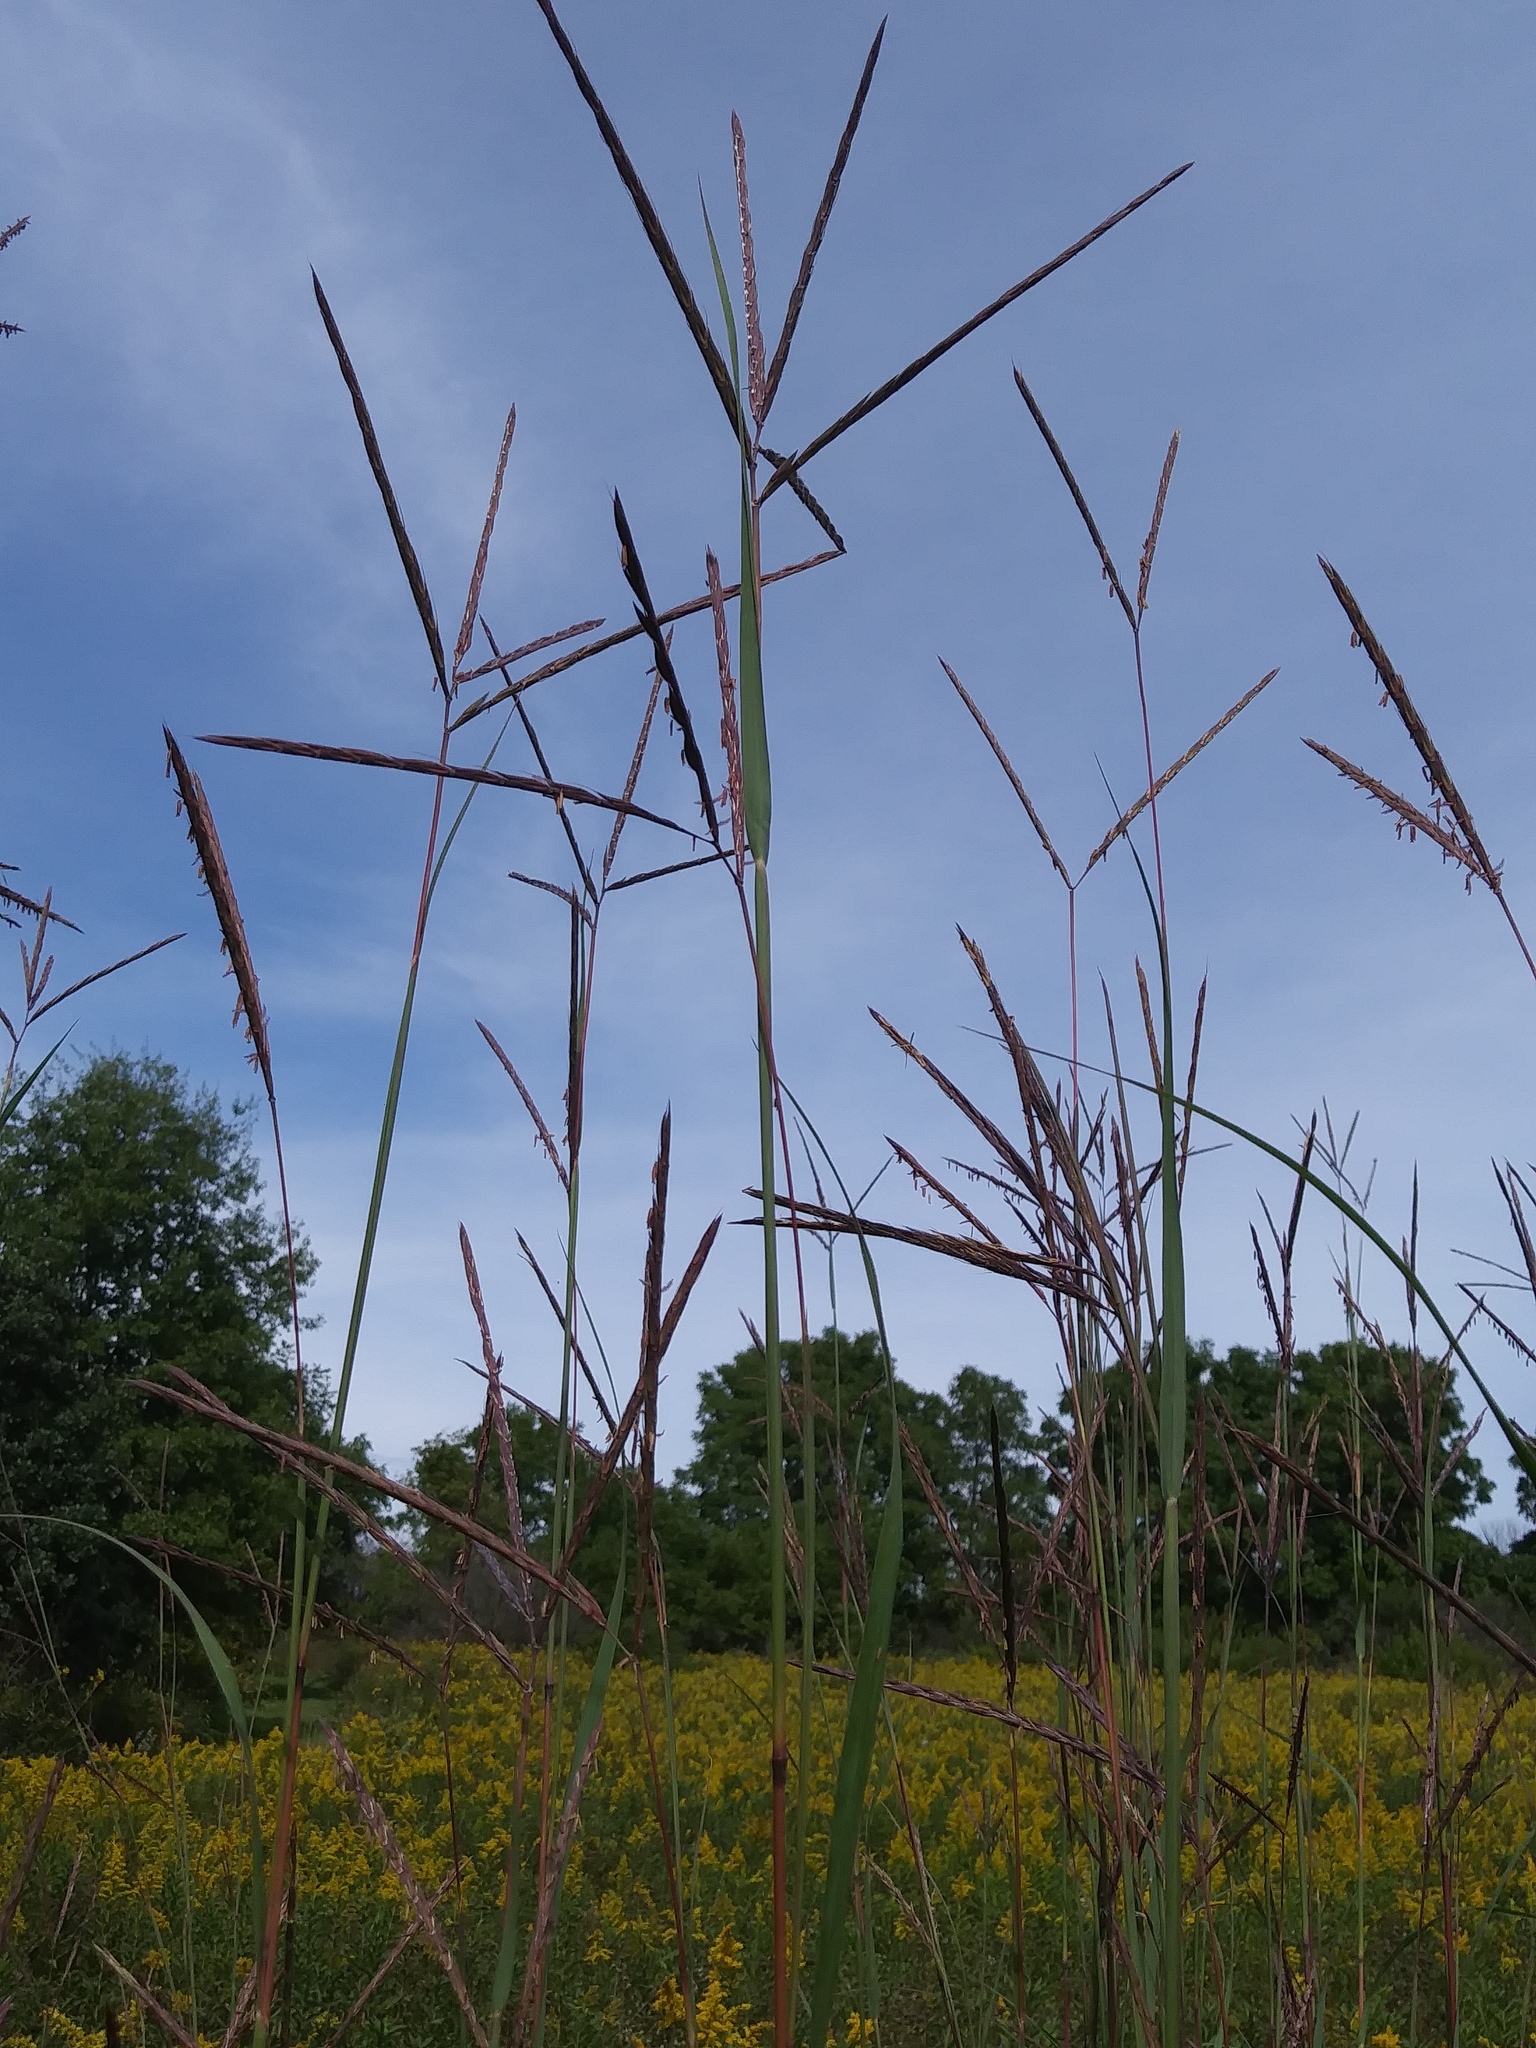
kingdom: Plantae
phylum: Tracheophyta
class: Liliopsida
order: Poales
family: Poaceae
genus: Andropogon
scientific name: Andropogon gerardi
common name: Big bluestem
